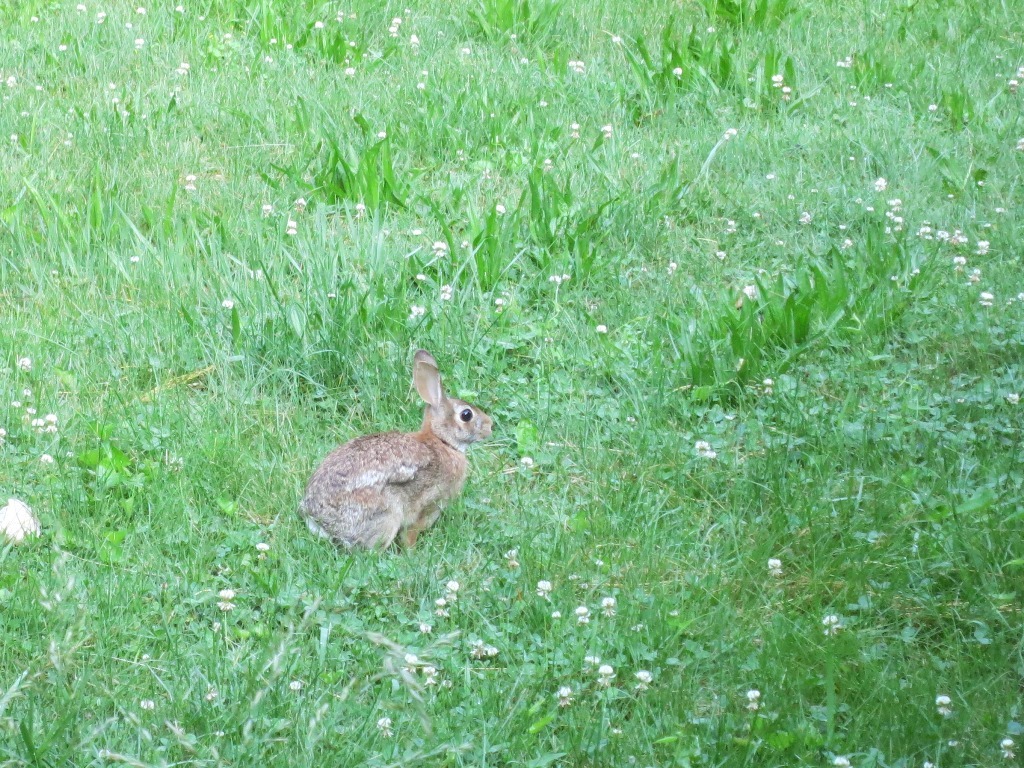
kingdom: Animalia
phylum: Chordata
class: Mammalia
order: Lagomorpha
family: Leporidae
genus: Sylvilagus
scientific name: Sylvilagus floridanus
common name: Eastern cottontail
